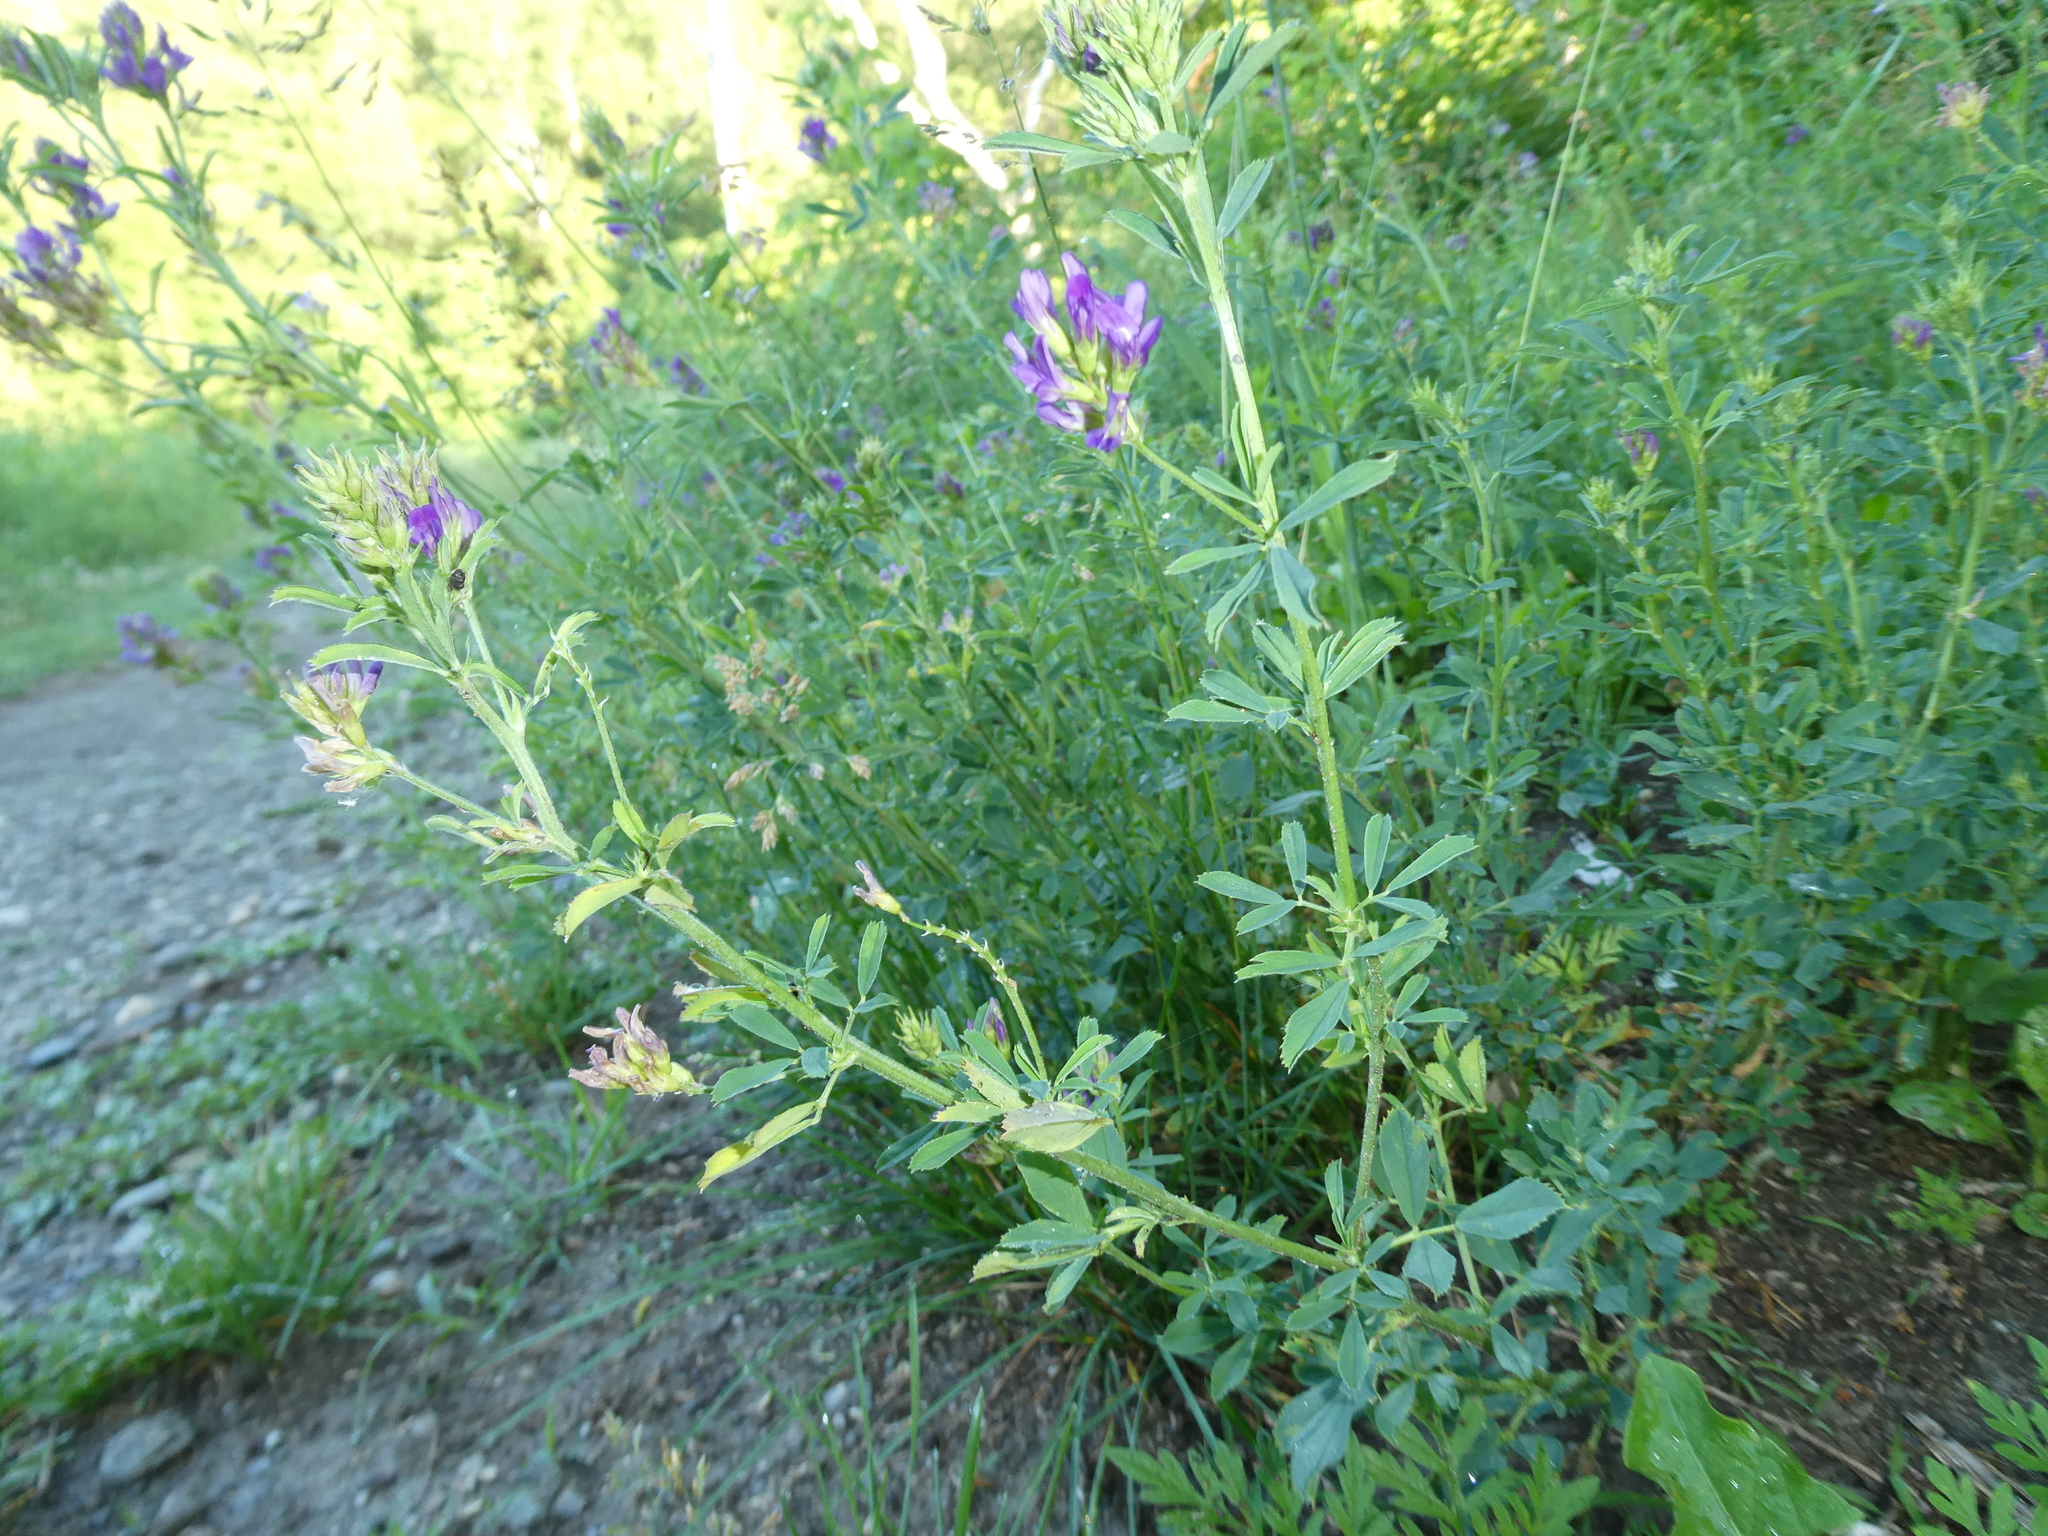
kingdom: Plantae
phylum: Tracheophyta
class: Magnoliopsida
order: Fabales
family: Fabaceae
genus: Medicago
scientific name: Medicago sativa
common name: Alfalfa
